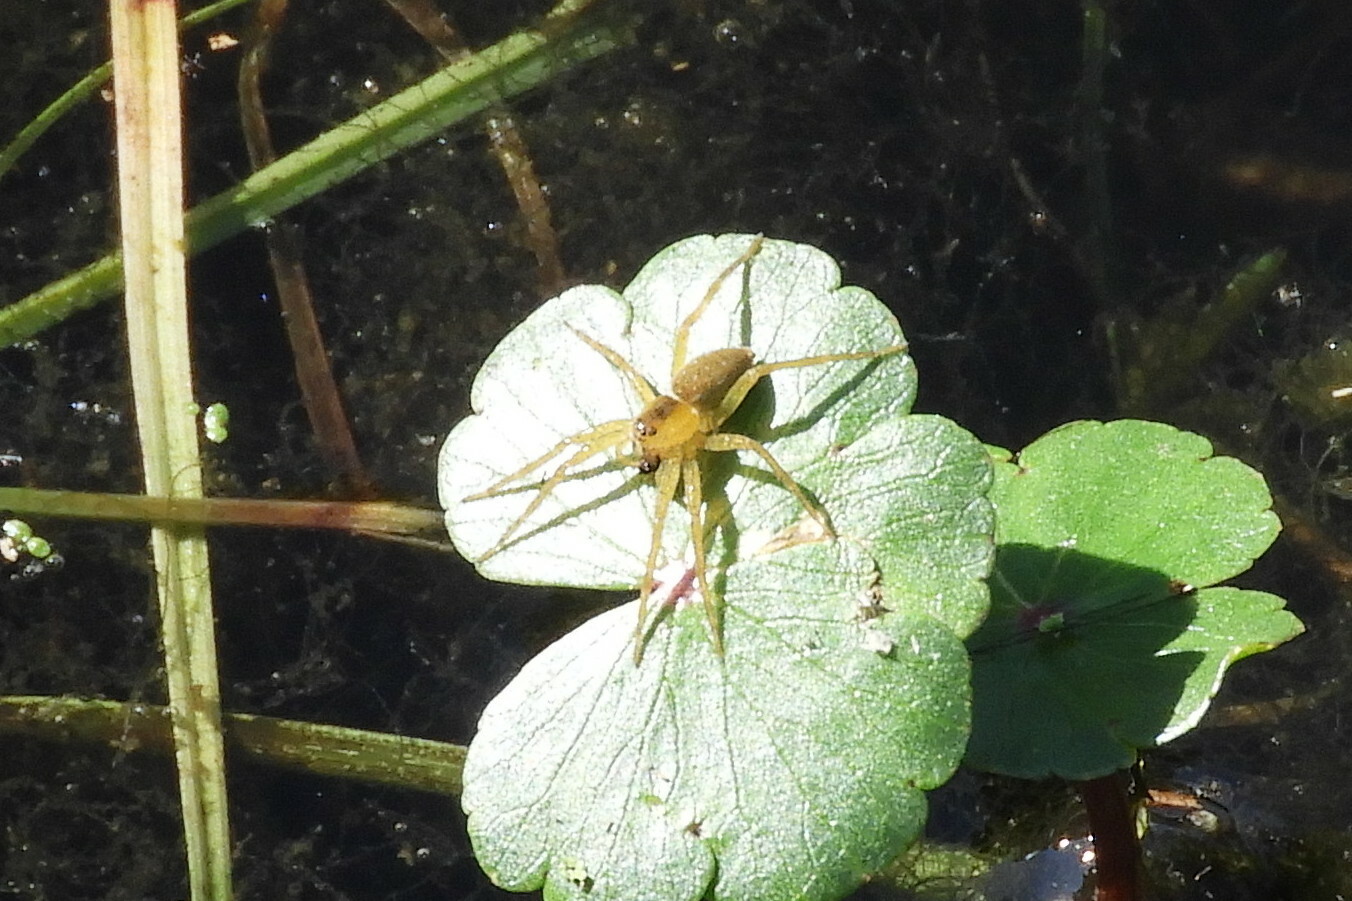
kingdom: Animalia
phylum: Arthropoda
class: Arachnida
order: Araneae
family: Pisauridae
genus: Dolomedes
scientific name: Dolomedes triton
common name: Six-spotted fishing spider
